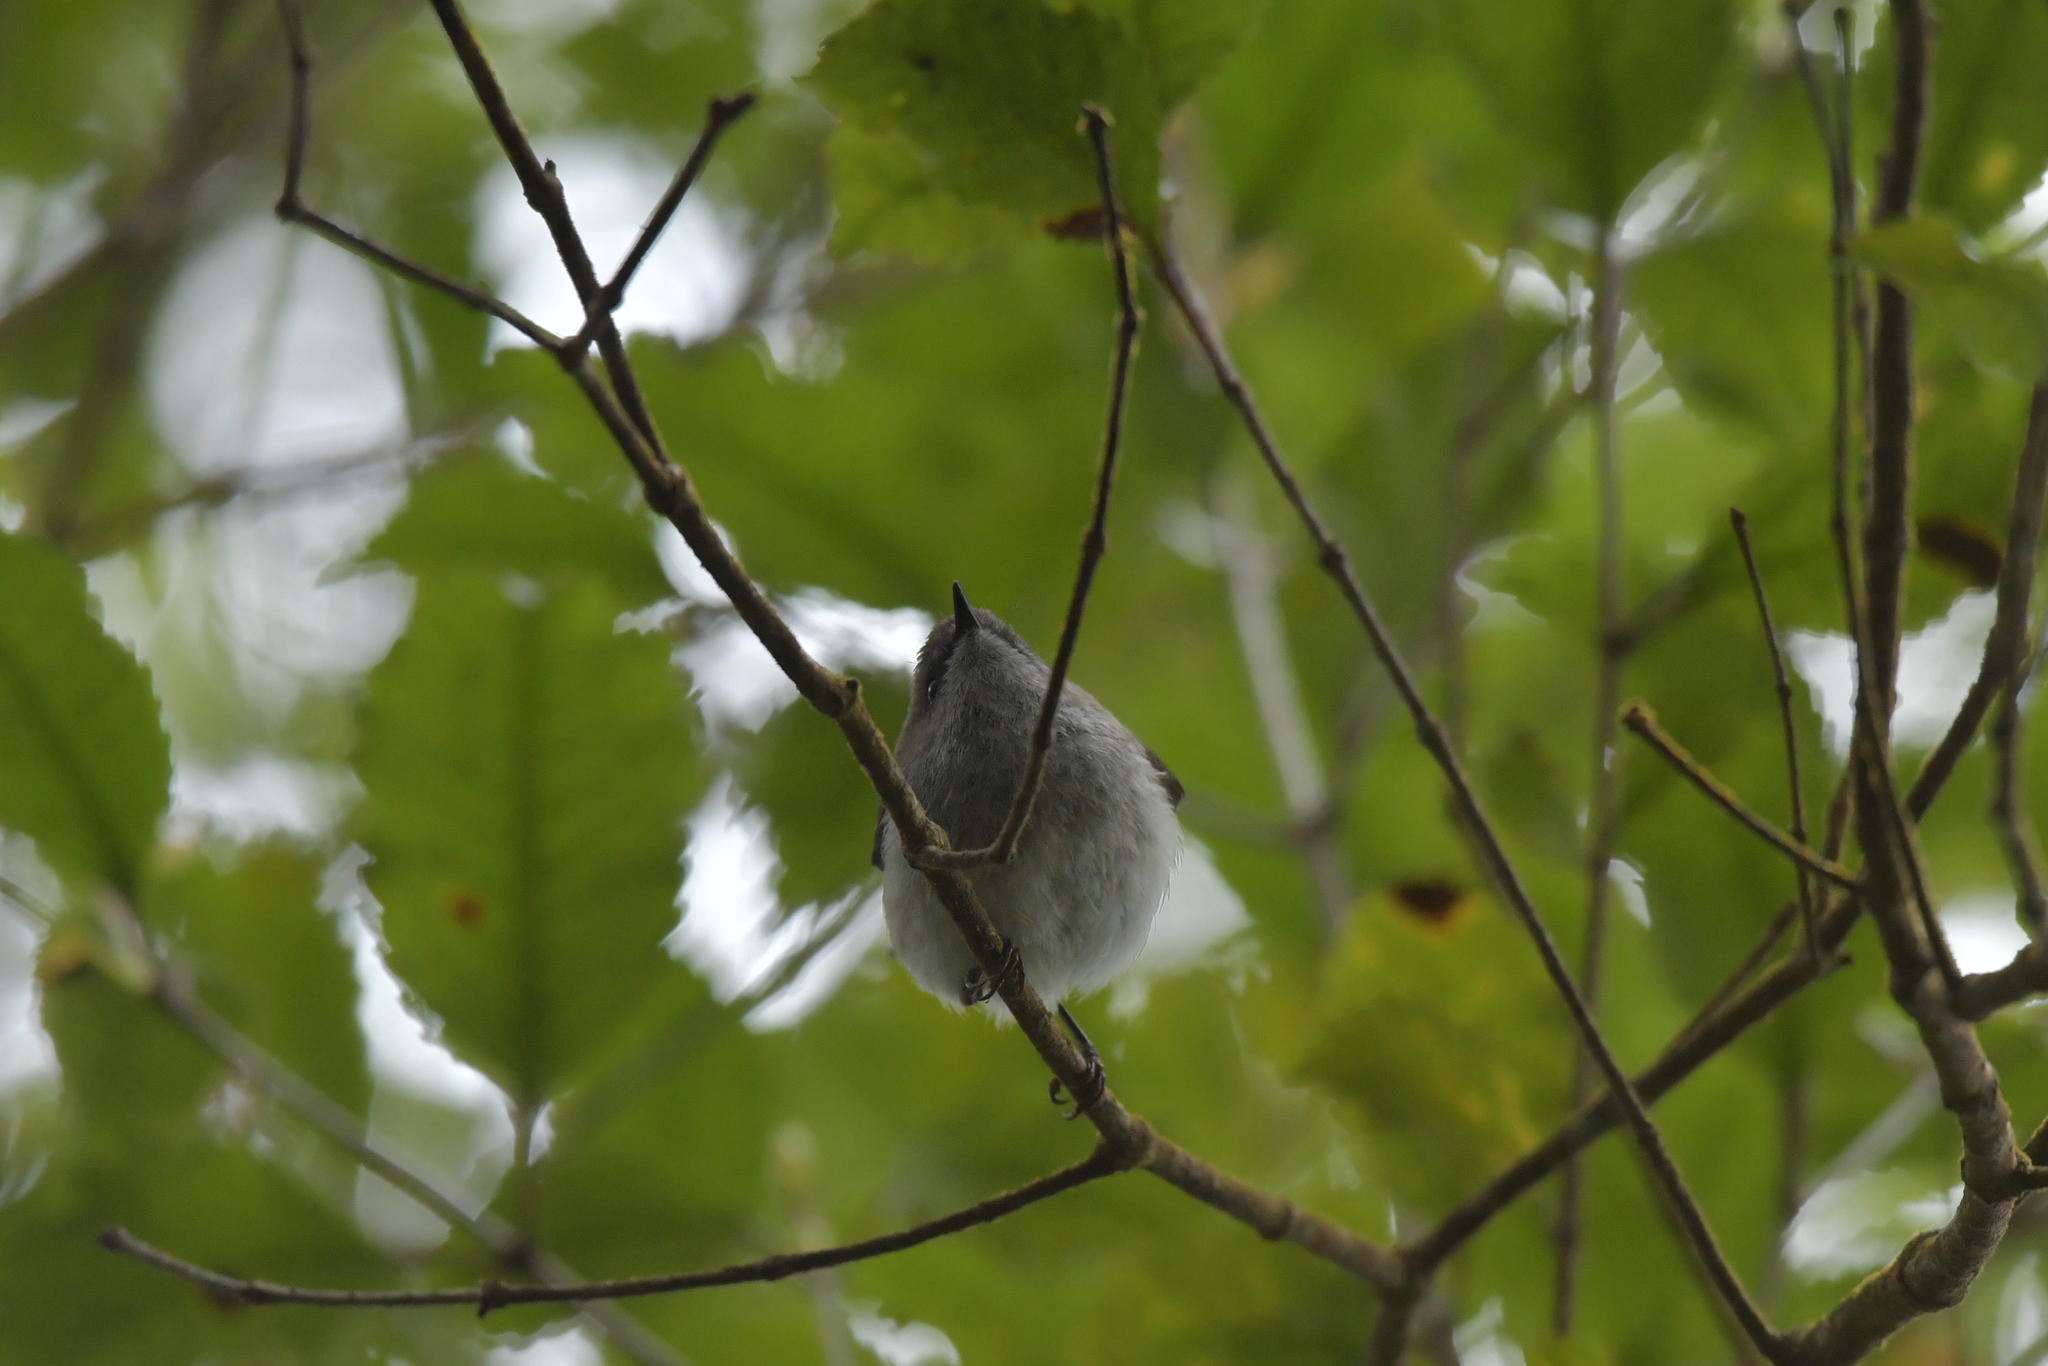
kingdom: Animalia
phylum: Chordata
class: Aves
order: Passeriformes
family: Acanthizidae
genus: Gerygone
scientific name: Gerygone igata
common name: Grey gerygone
